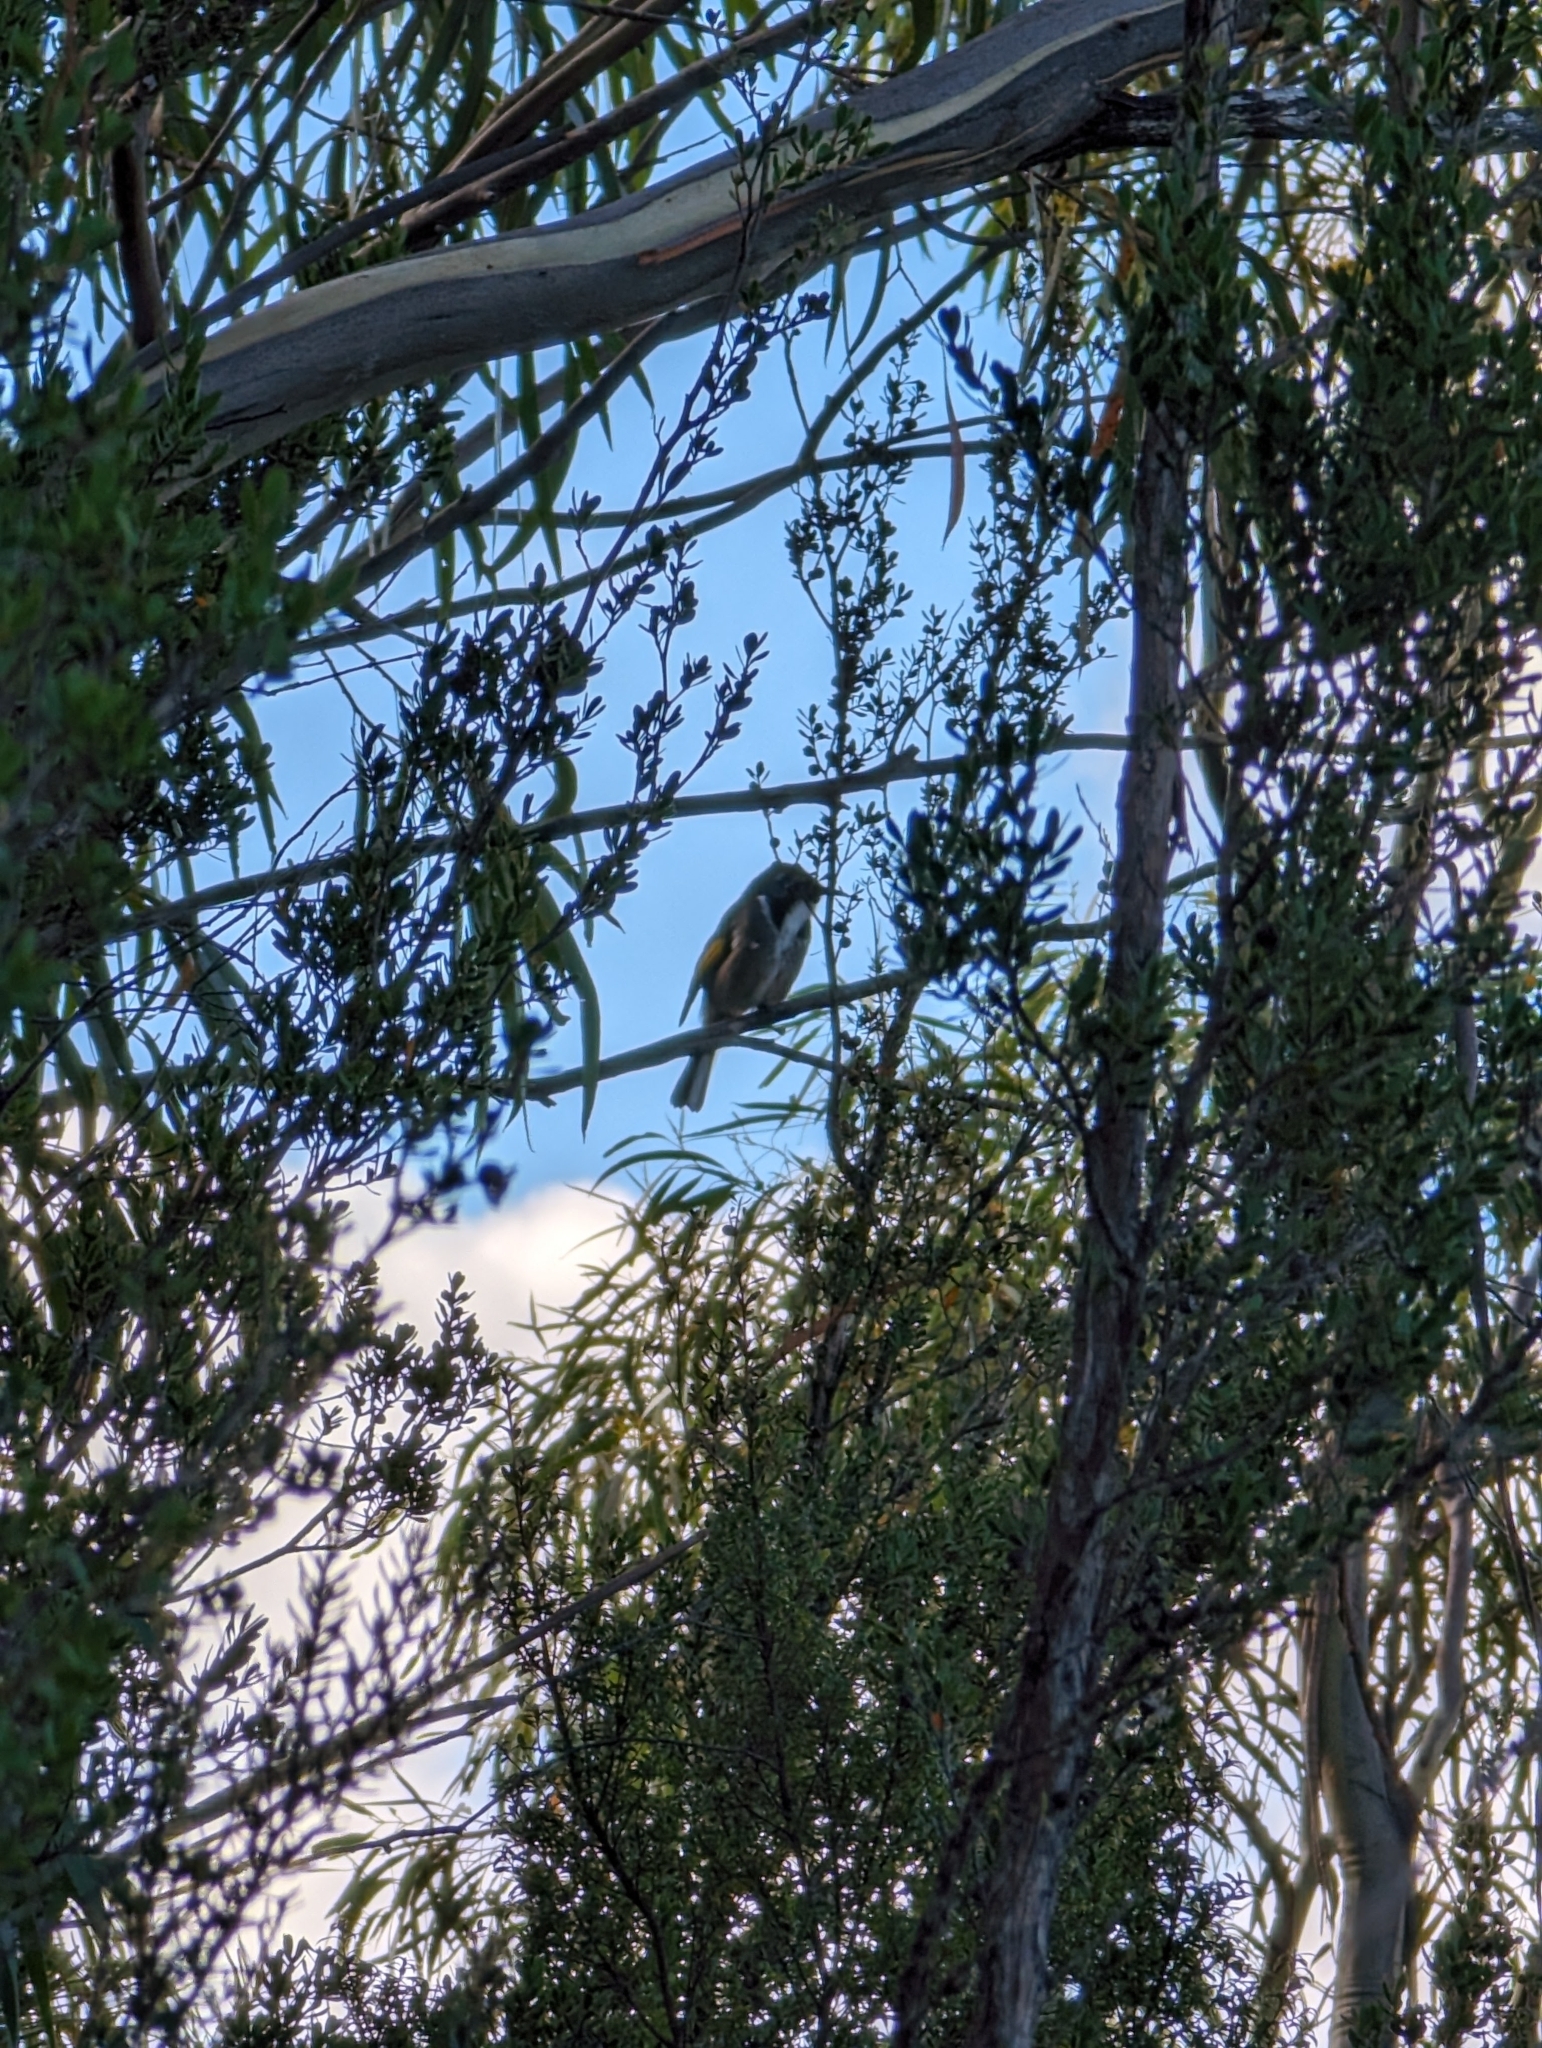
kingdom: Animalia
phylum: Chordata
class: Aves
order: Passeriformes
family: Meliphagidae
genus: Phylidonyris
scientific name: Phylidonyris pyrrhopterus
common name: Crescent honeyeater
